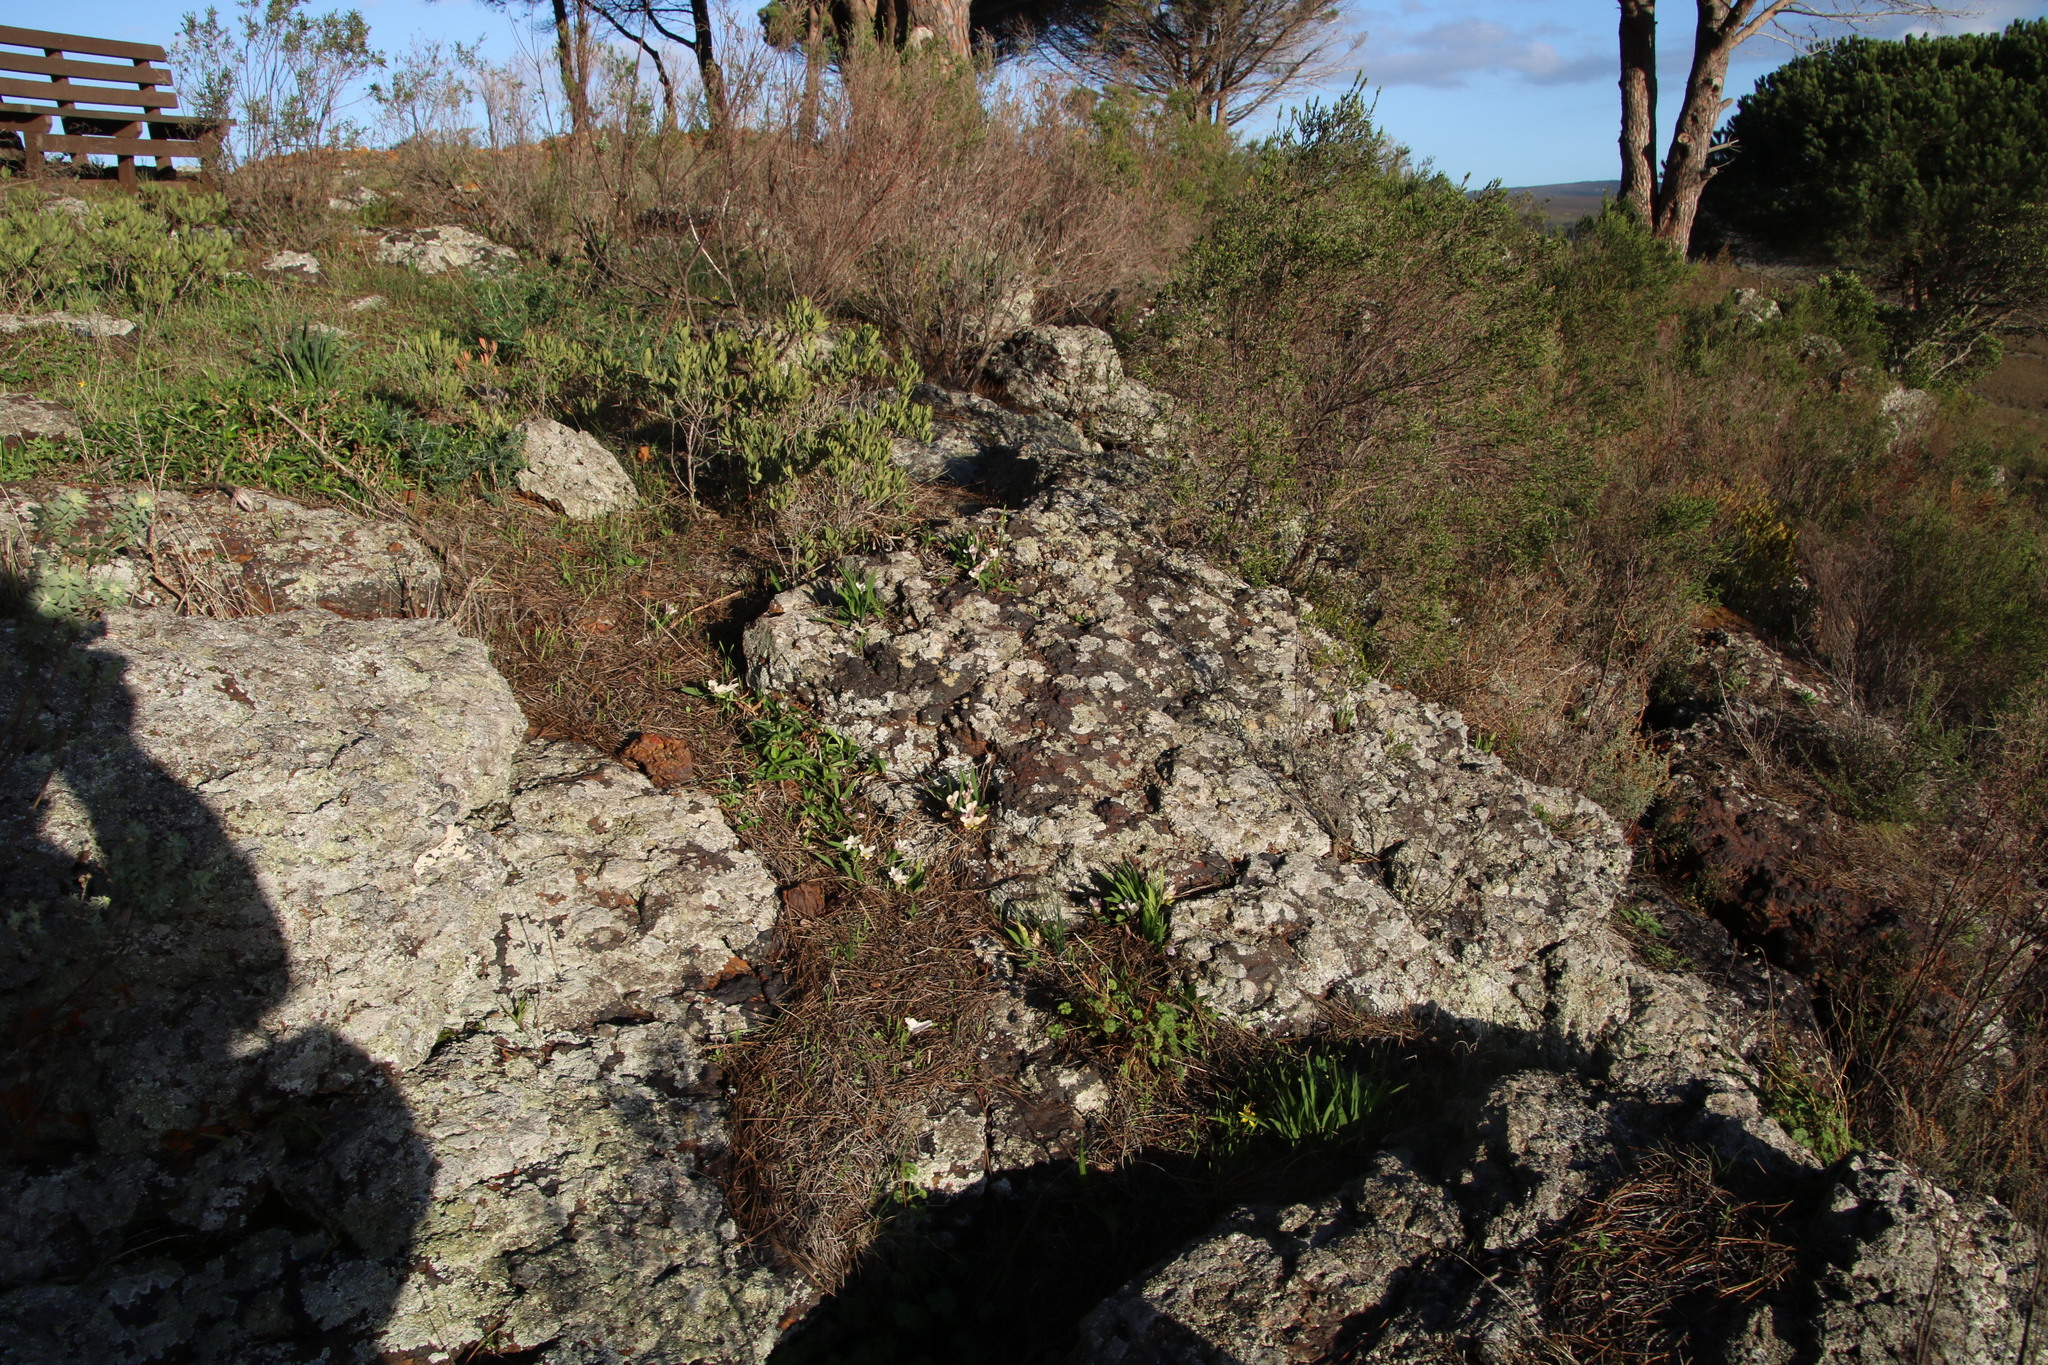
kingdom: Plantae
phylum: Tracheophyta
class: Liliopsida
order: Asparagales
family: Iridaceae
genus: Freesia
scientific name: Freesia caryophyllacea
